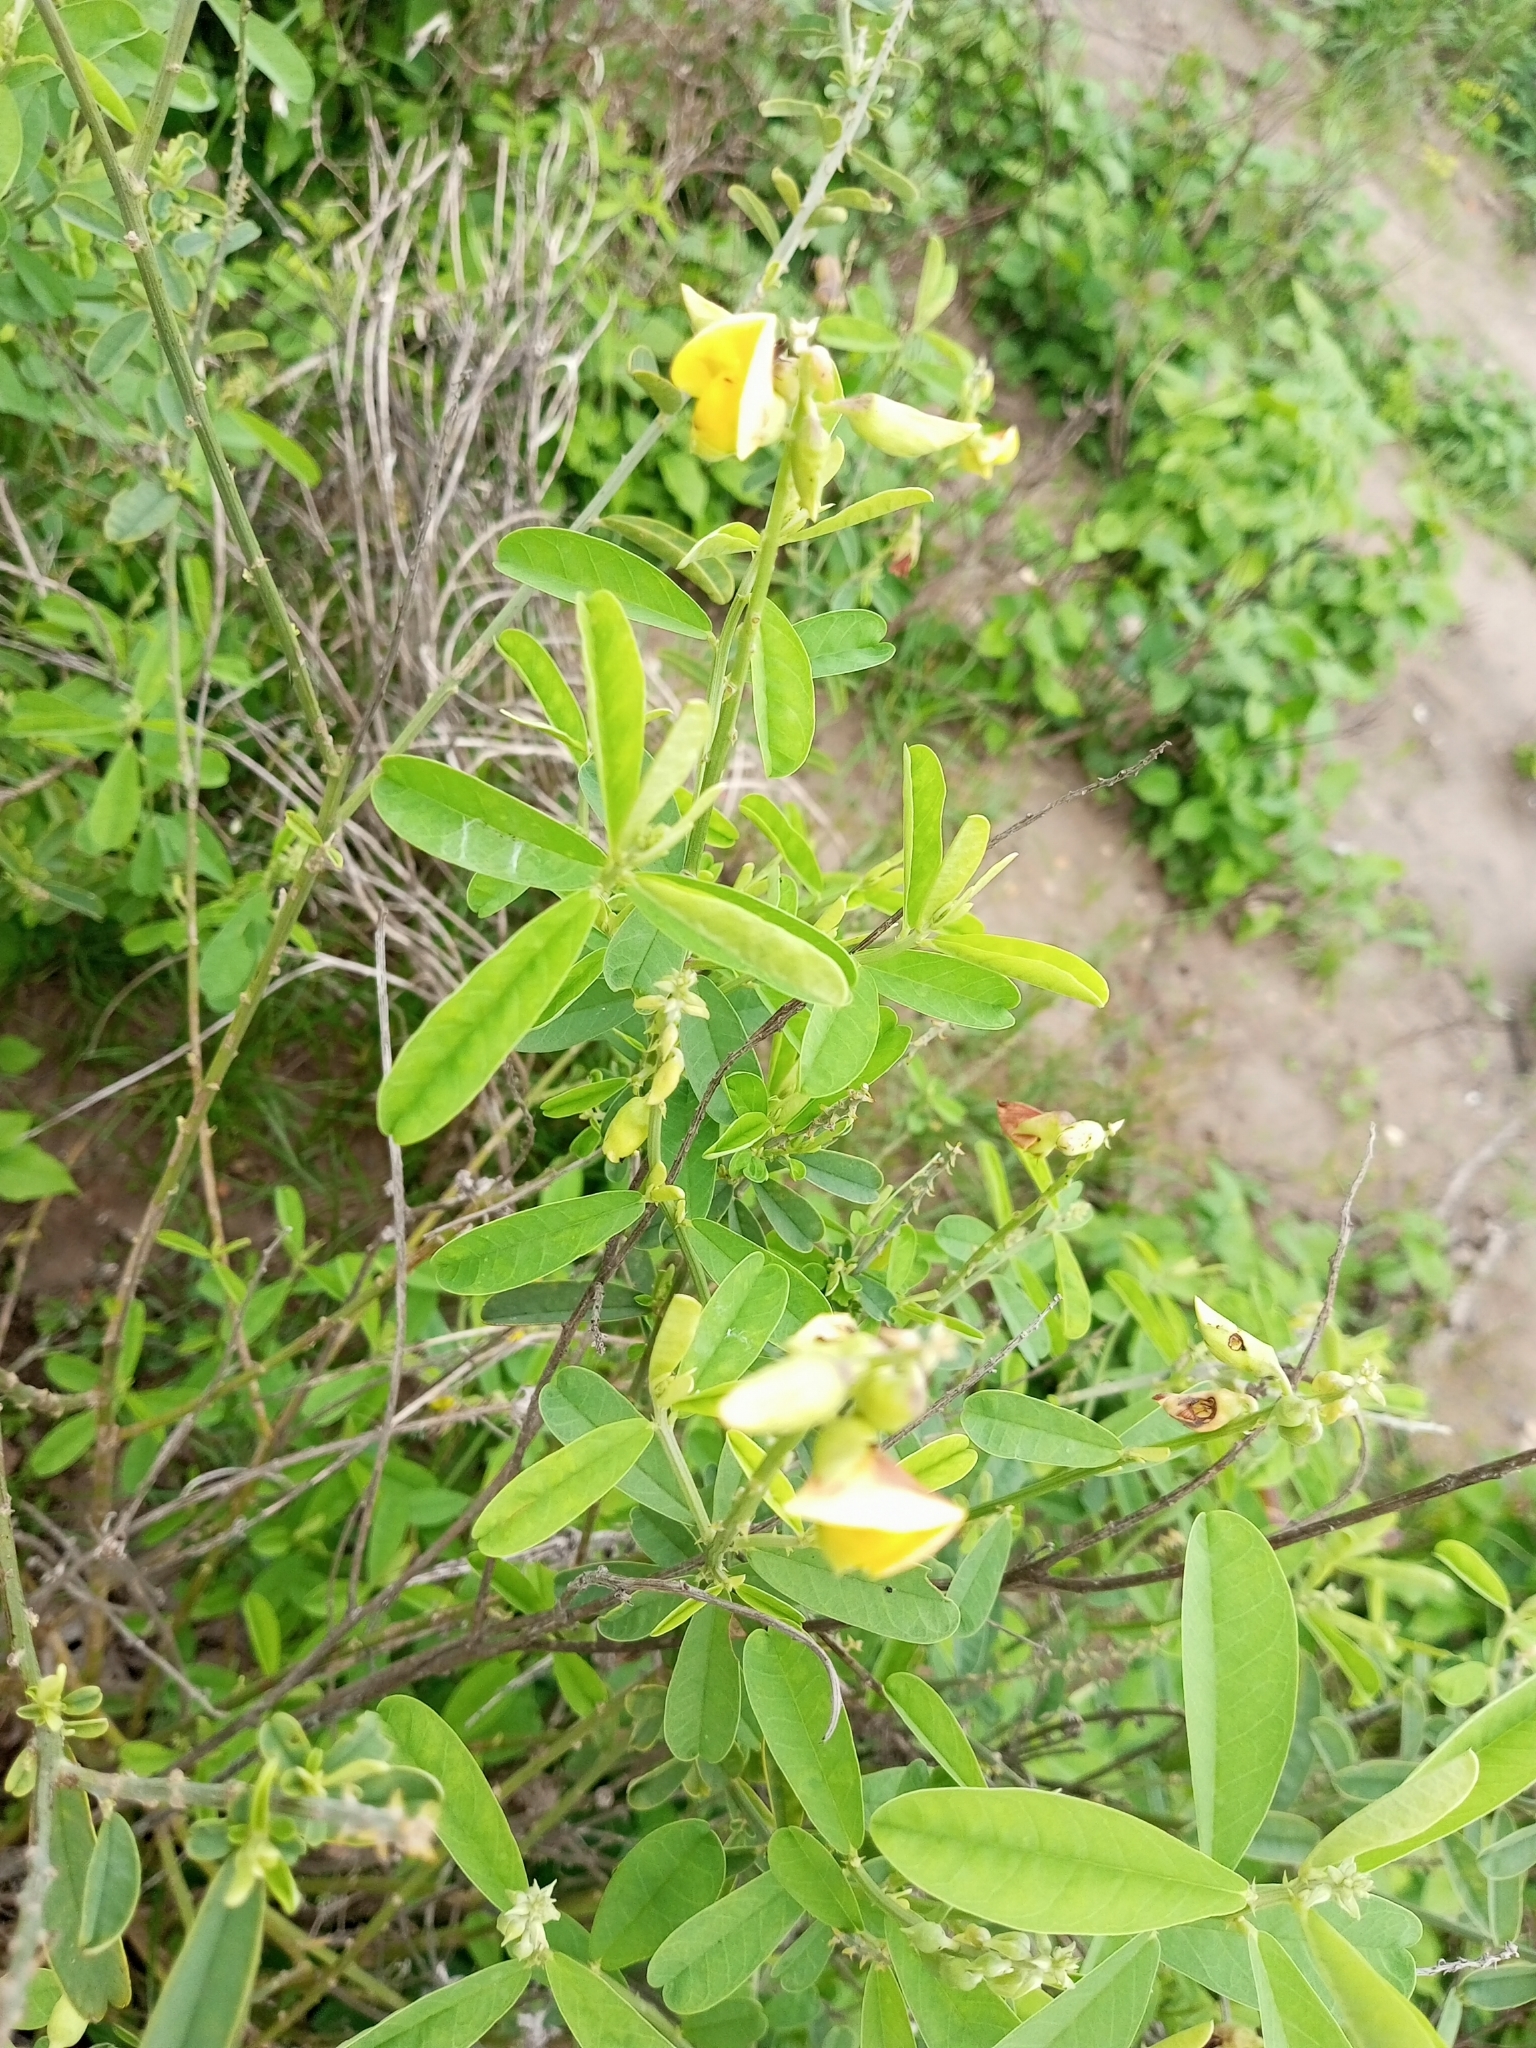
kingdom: Plantae
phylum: Tracheophyta
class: Magnoliopsida
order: Fabales
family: Fabaceae
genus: Crotalaria
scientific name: Crotalaria retusa
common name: Rattleweed
